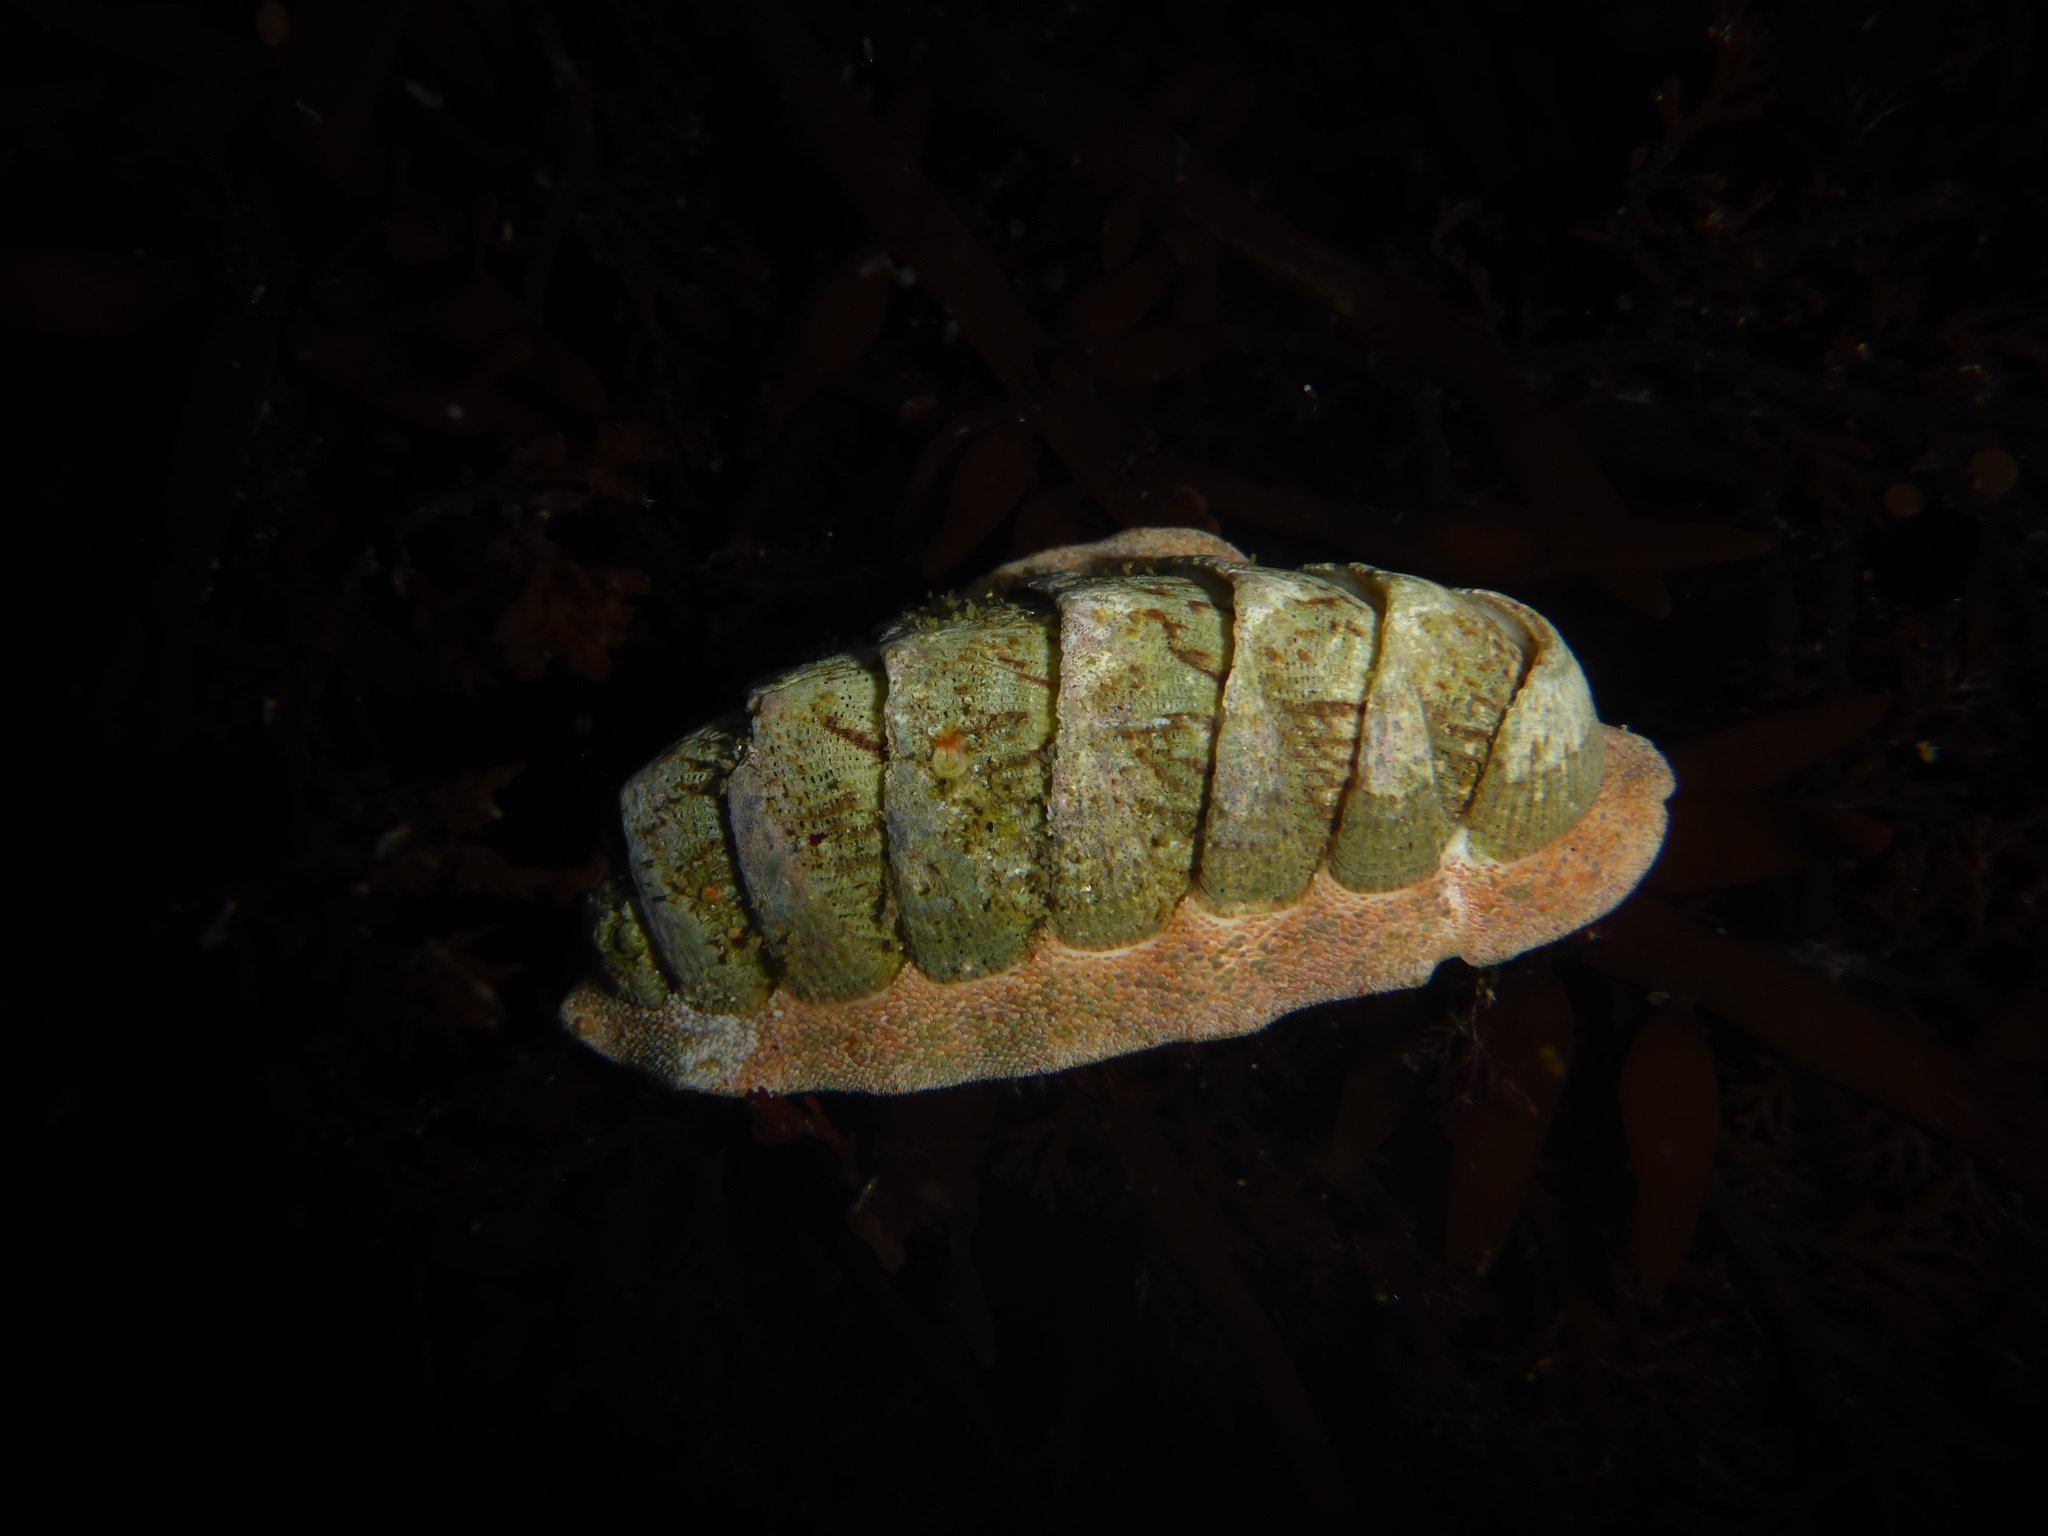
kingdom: Animalia
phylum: Mollusca
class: Polyplacophora
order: Chitonida
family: Ischnochitonidae
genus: Lepidozona
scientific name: Lepidozona cooperi
